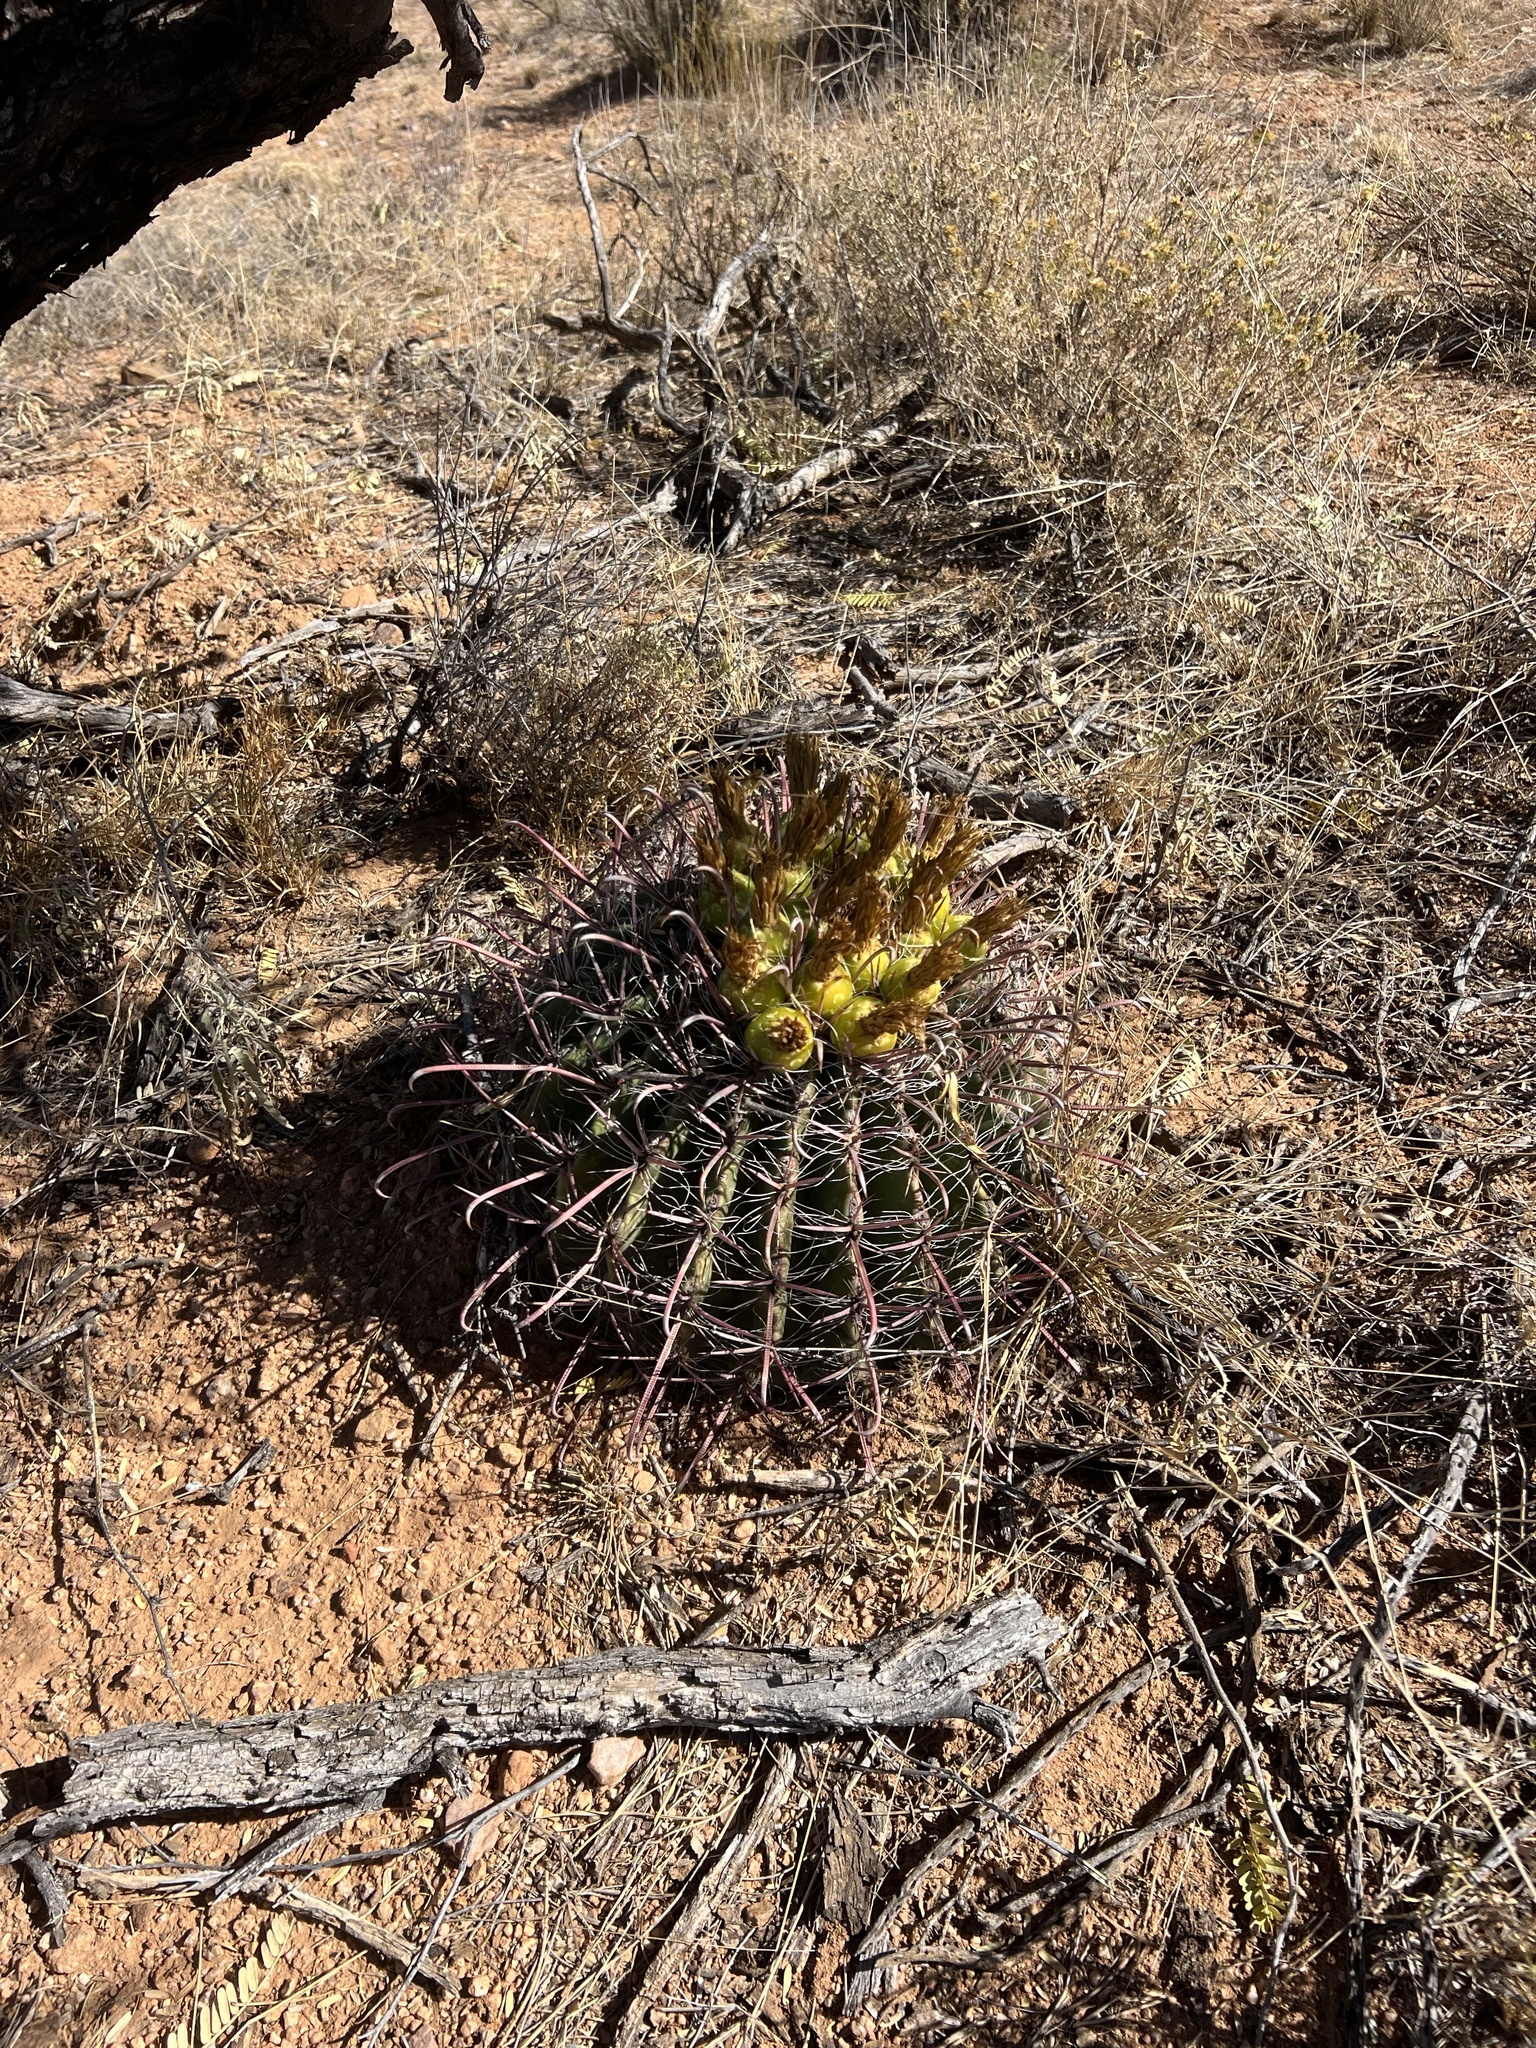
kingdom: Plantae
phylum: Tracheophyta
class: Magnoliopsida
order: Caryophyllales
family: Cactaceae
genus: Ferocactus
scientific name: Ferocactus wislizeni
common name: Candy barrel cactus
